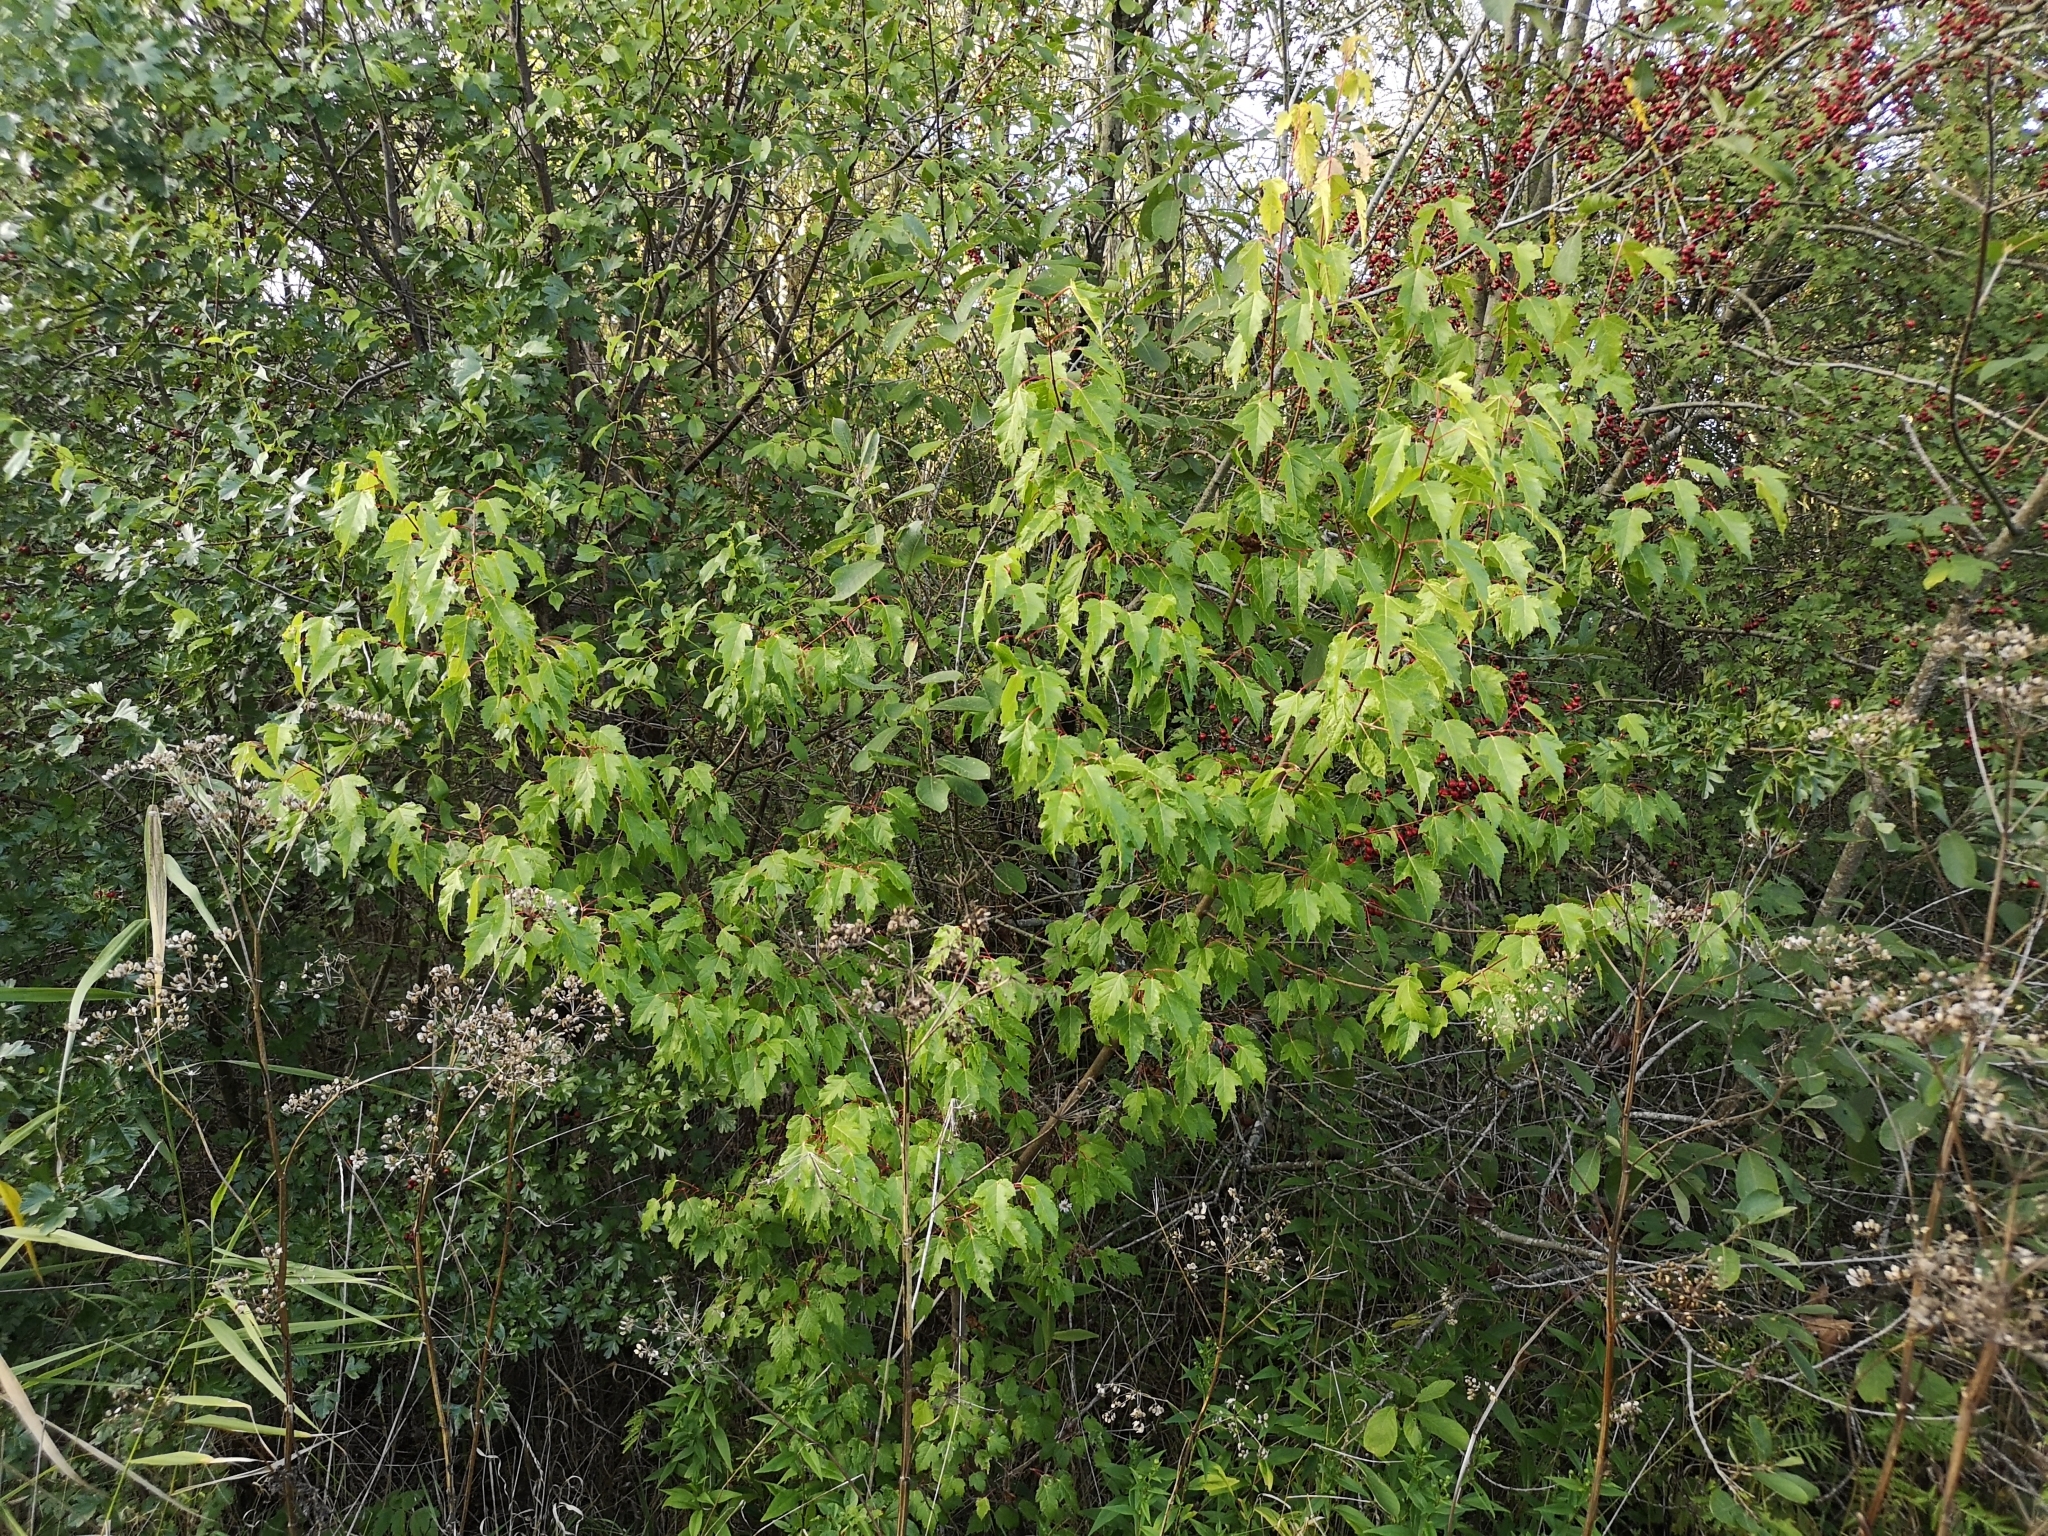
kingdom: Plantae
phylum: Tracheophyta
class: Magnoliopsida
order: Sapindales
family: Sapindaceae
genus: Acer
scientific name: Acer tataricum
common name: Tartar maple
